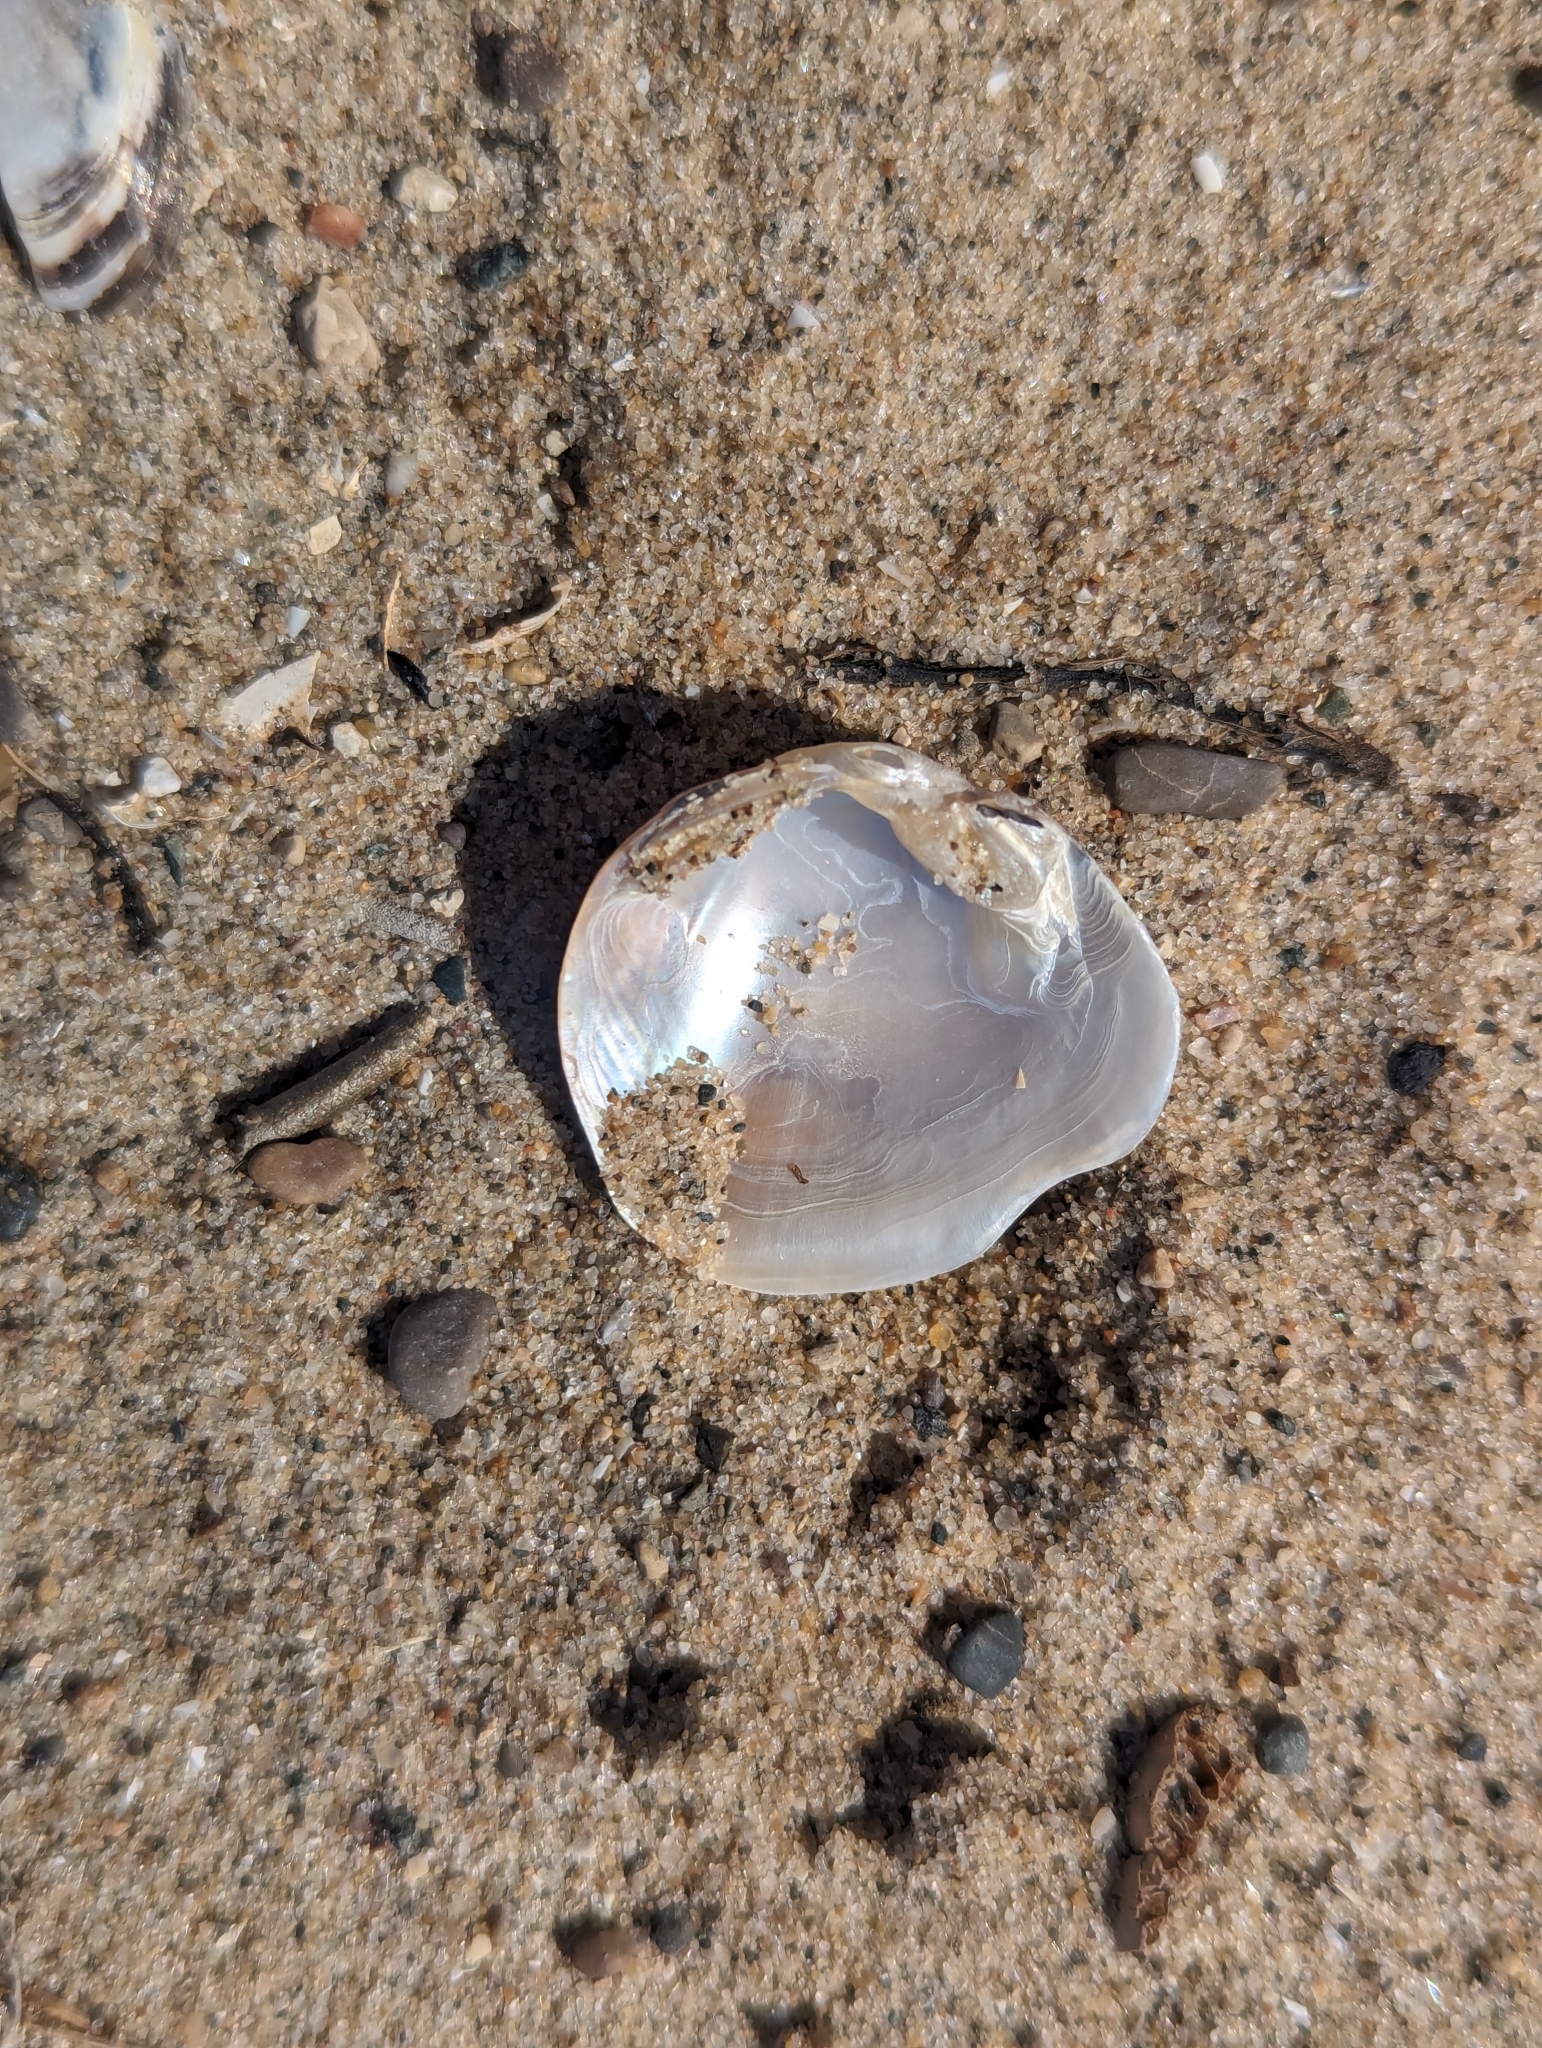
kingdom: Animalia
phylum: Mollusca
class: Bivalvia
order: Unionida
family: Unionidae
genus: Obovaria
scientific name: Obovaria subrotunda
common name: Round hickorynut
